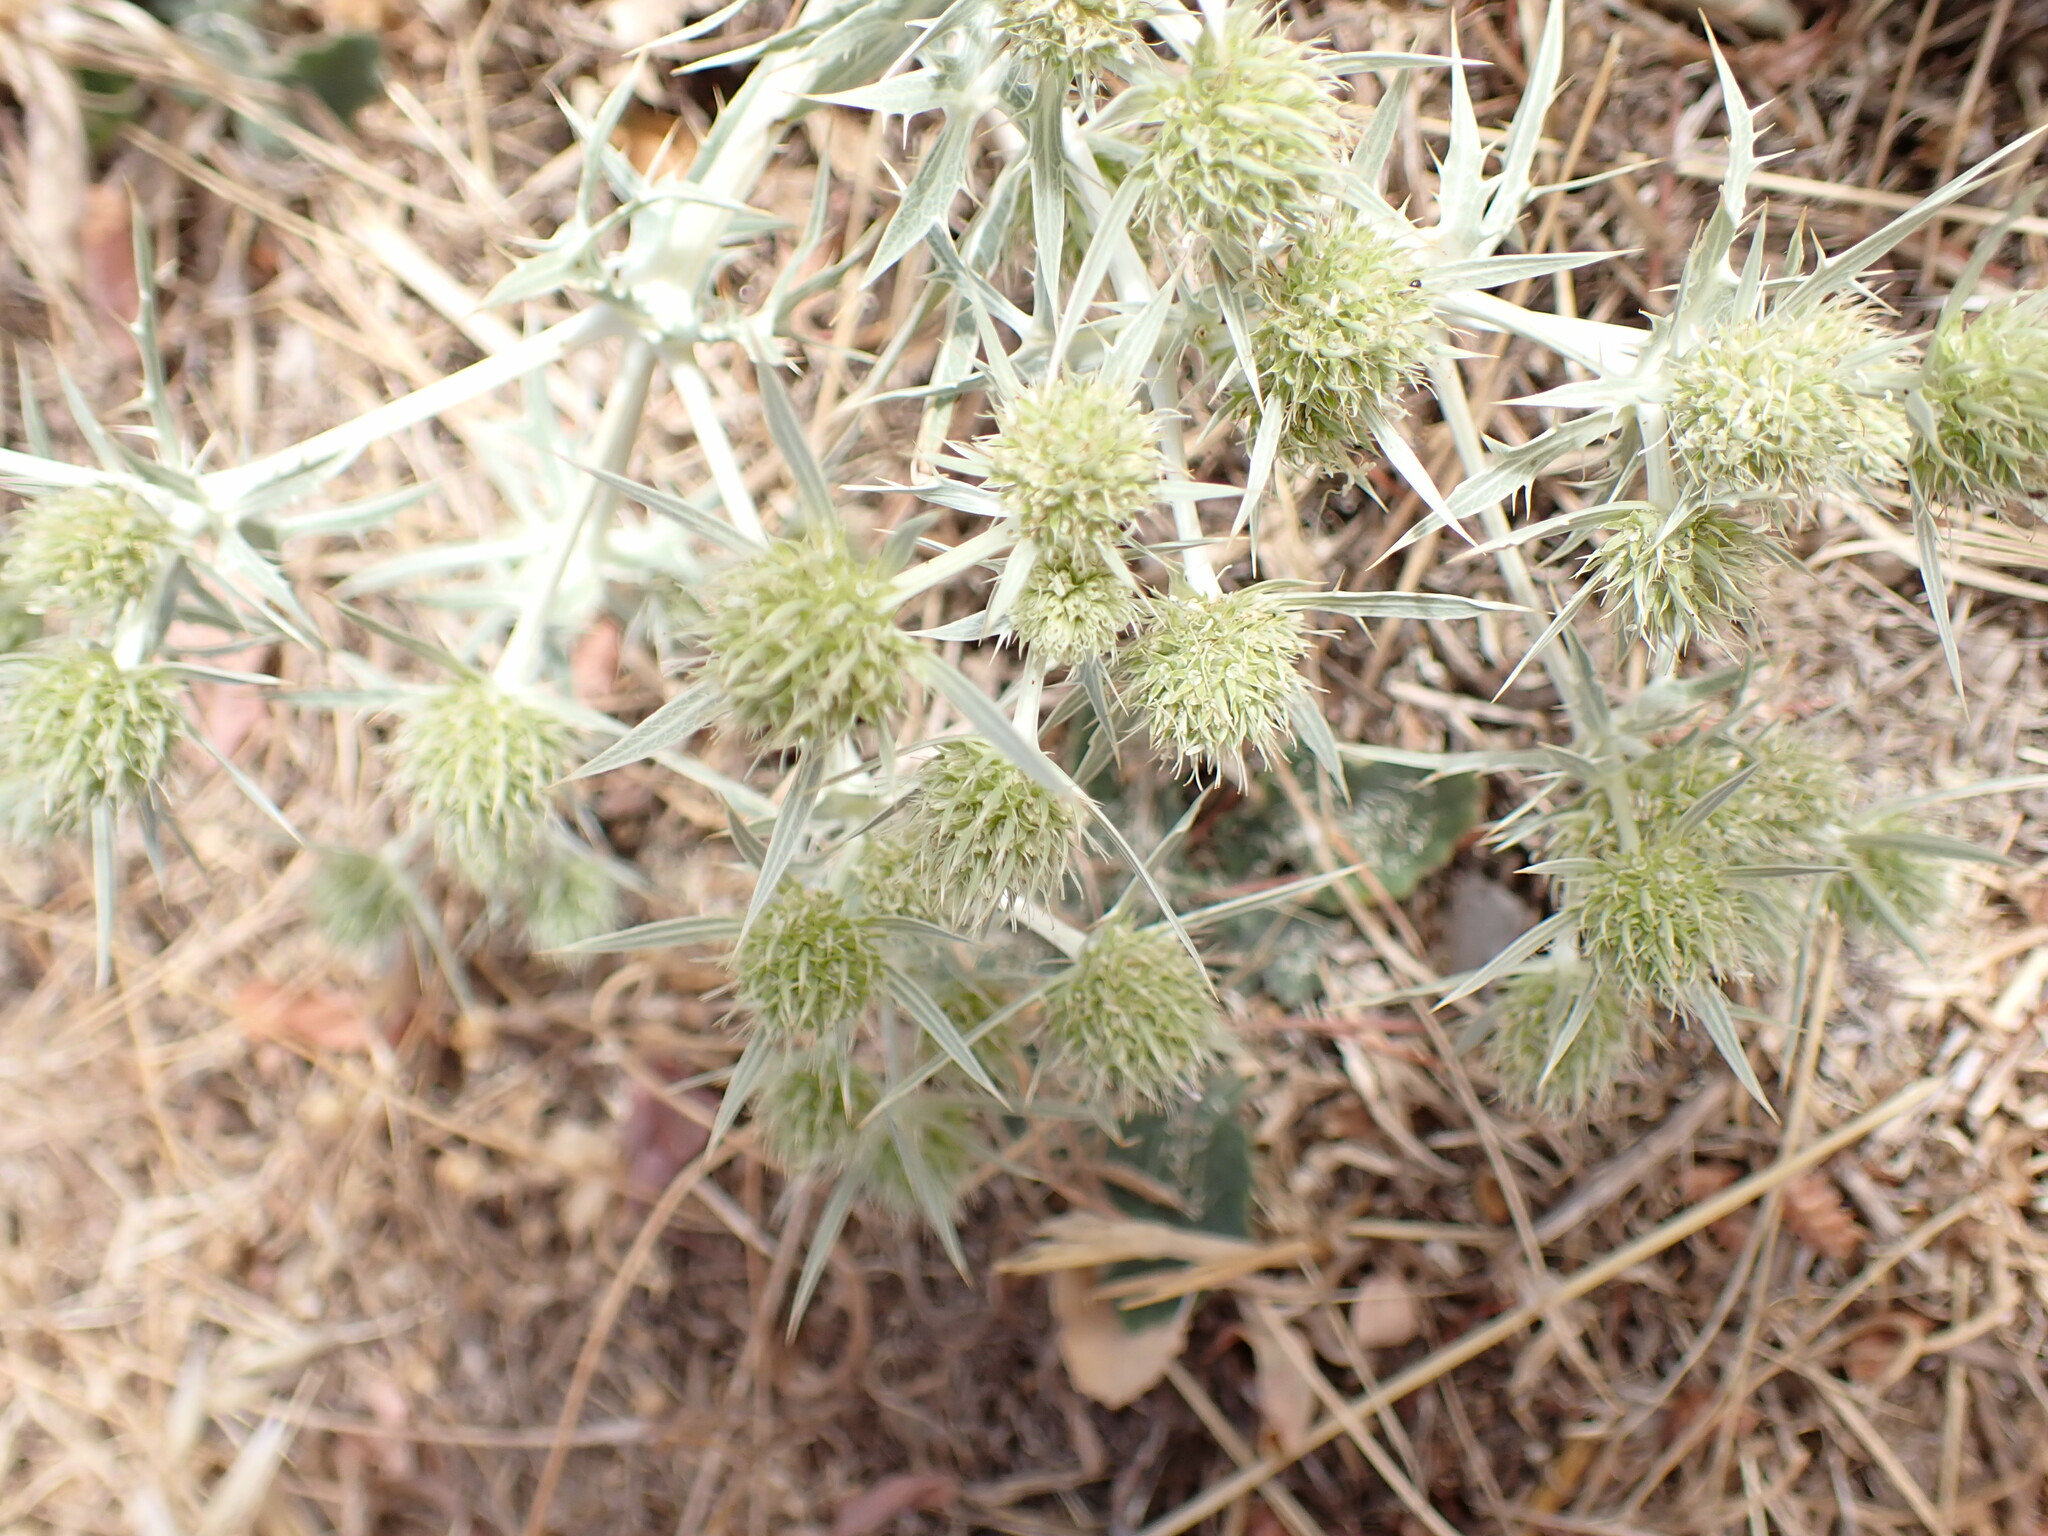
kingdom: Plantae
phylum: Tracheophyta
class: Magnoliopsida
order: Apiales
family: Apiaceae
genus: Eryngium
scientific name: Eryngium campestre
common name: Field eryngo
